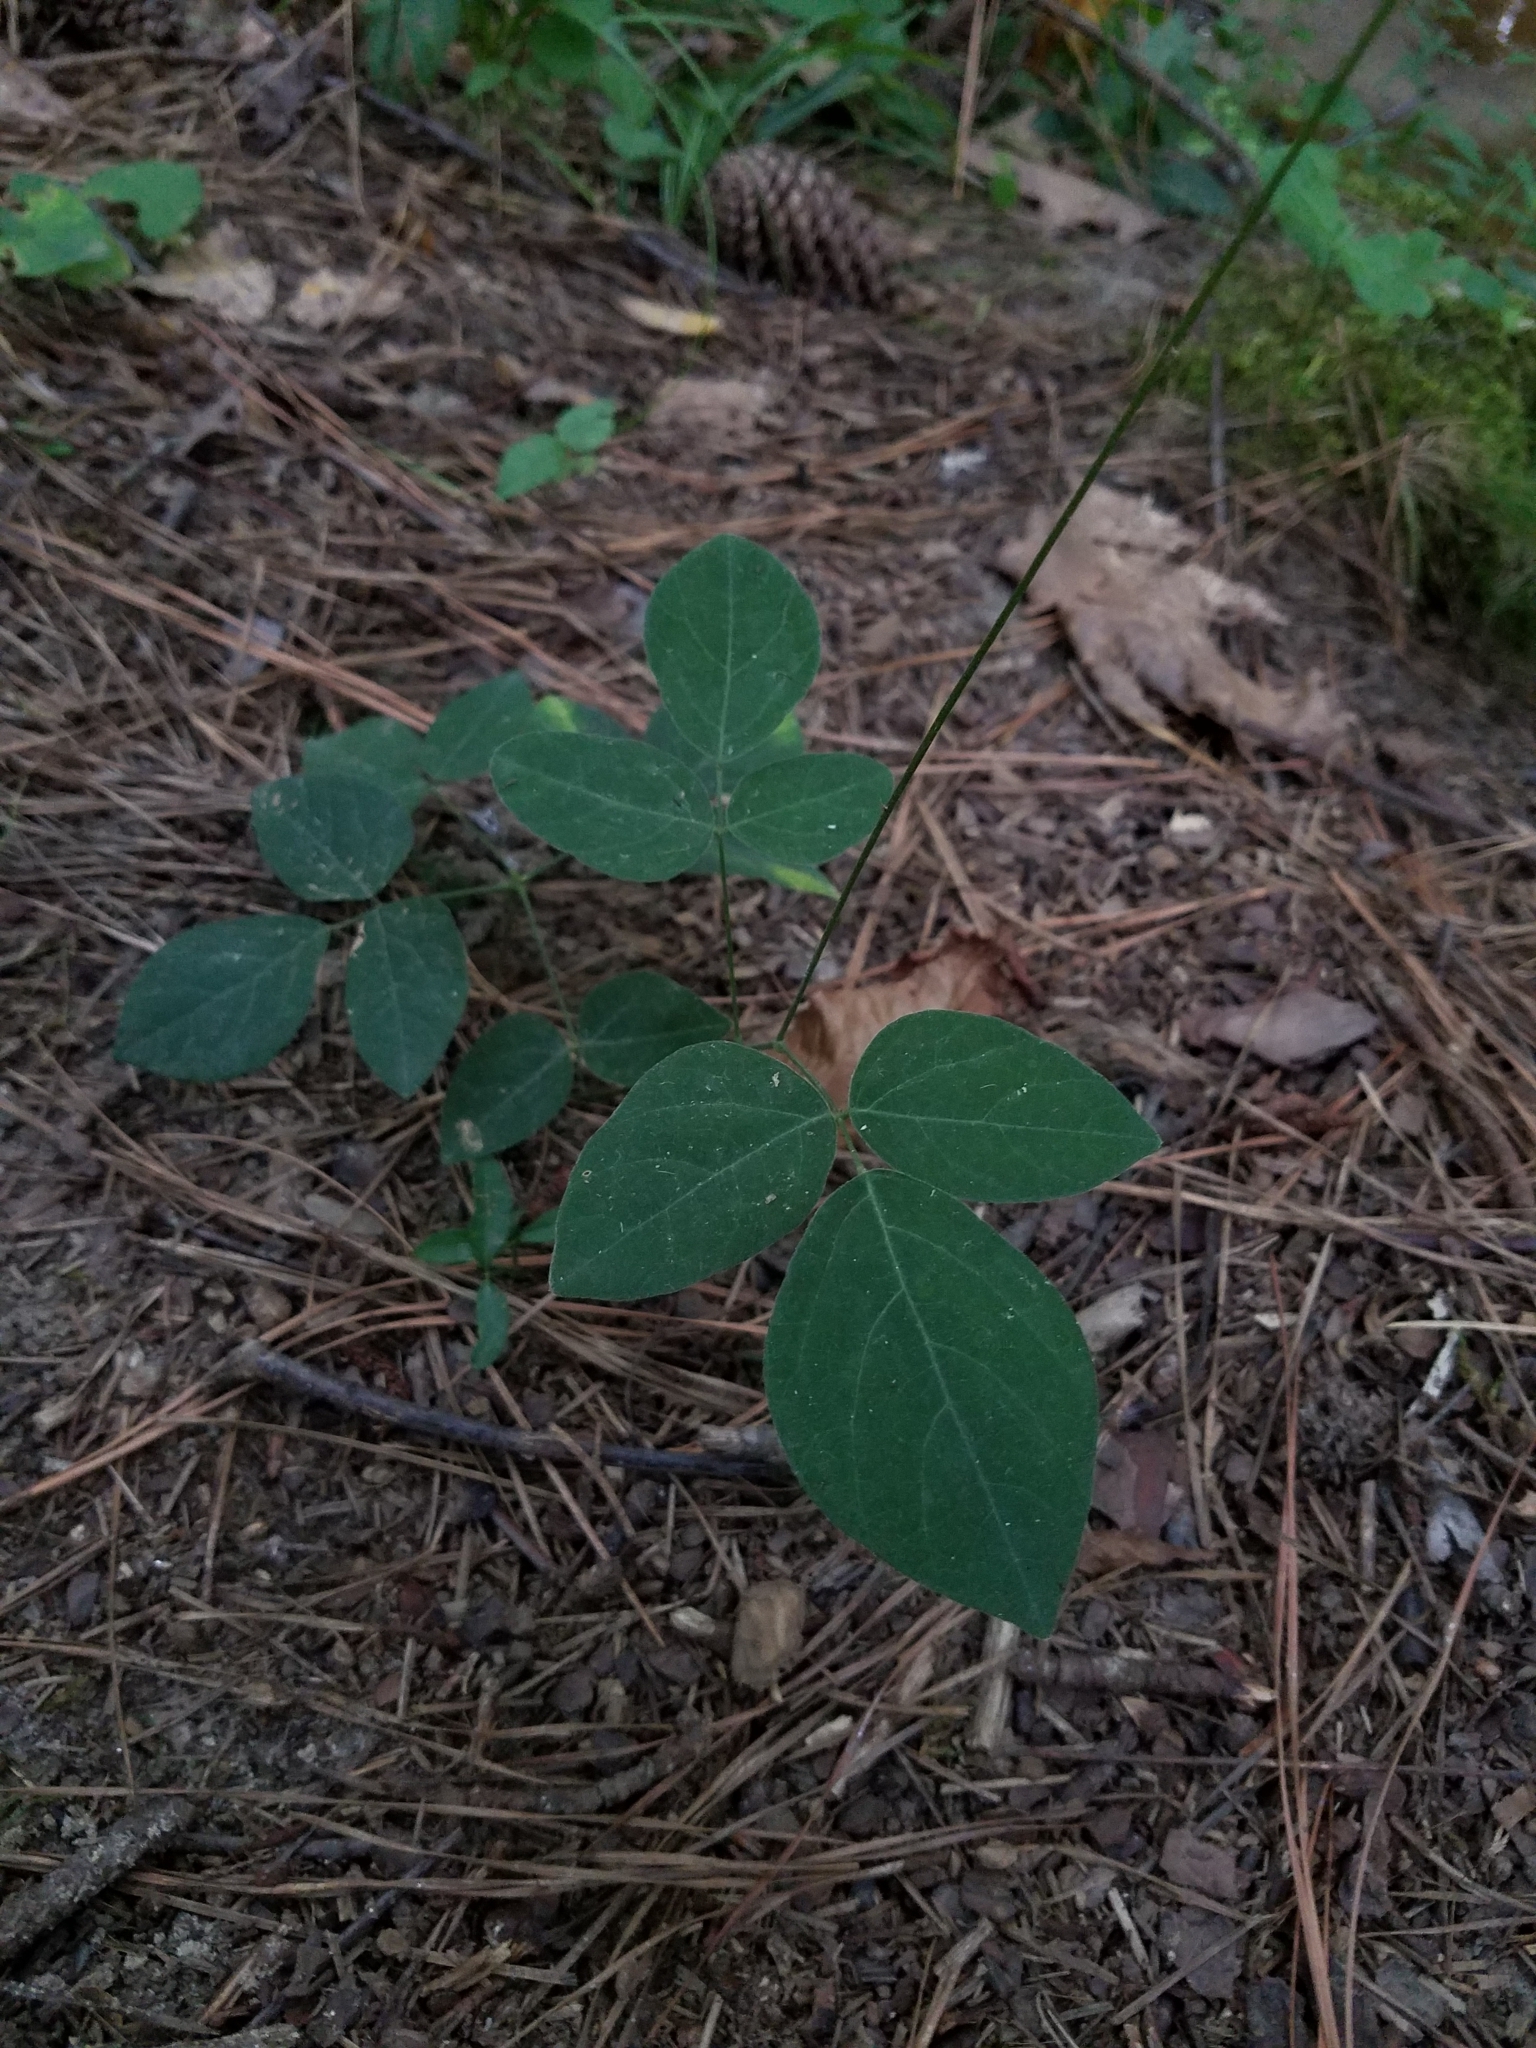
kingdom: Plantae
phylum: Tracheophyta
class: Magnoliopsida
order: Fabales
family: Fabaceae
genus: Hylodesmum
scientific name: Hylodesmum nudiflorum
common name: Bare-stemmed tick-trefoil
